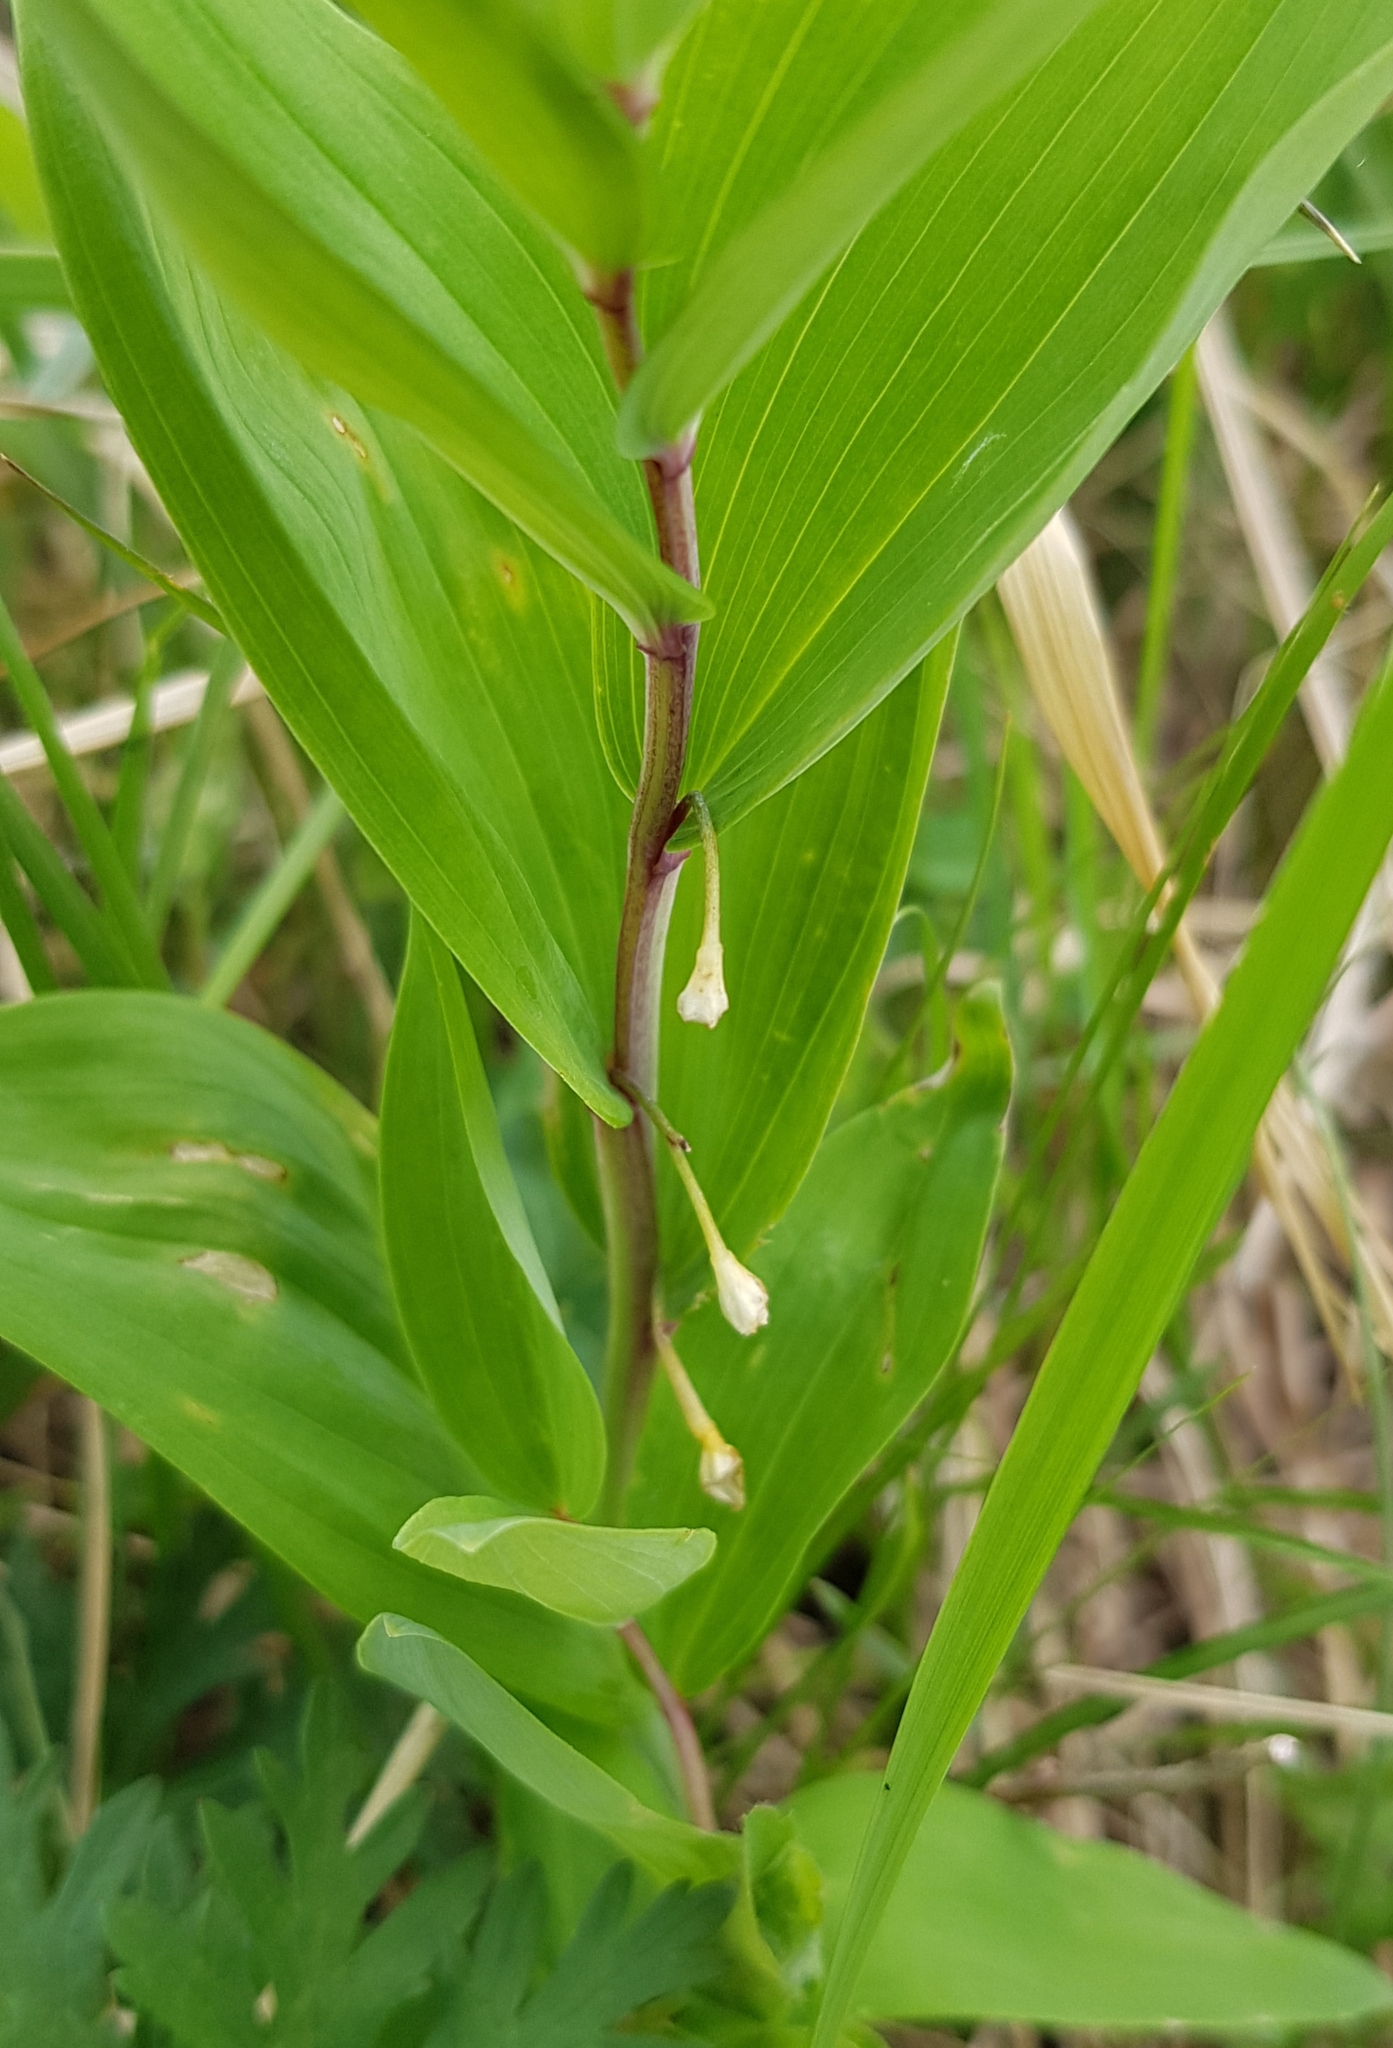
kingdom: Plantae
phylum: Tracheophyta
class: Liliopsida
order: Asparagales
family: Asparagaceae
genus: Polygonatum
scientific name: Polygonatum odoratum
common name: Angular solomon's-seal
